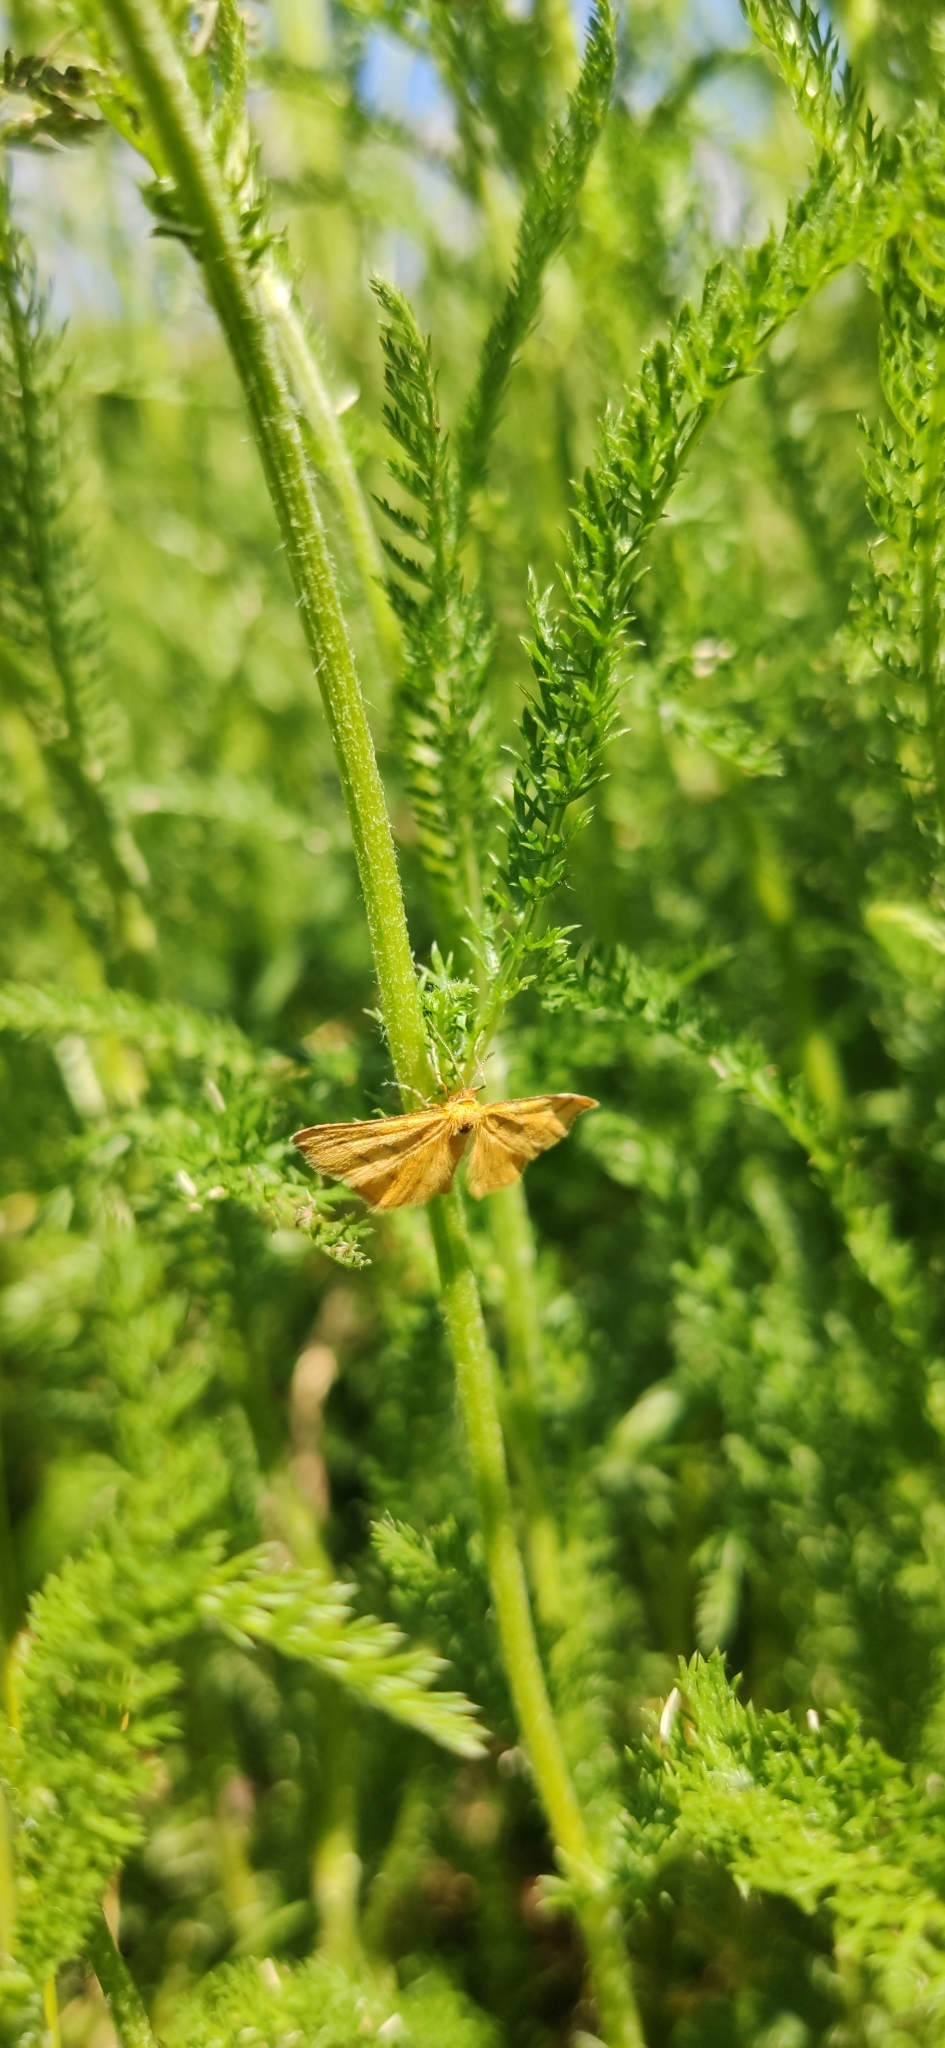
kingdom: Animalia
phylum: Arthropoda
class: Insecta
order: Lepidoptera
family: Geometridae
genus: Idaea
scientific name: Idaea aureolaria
